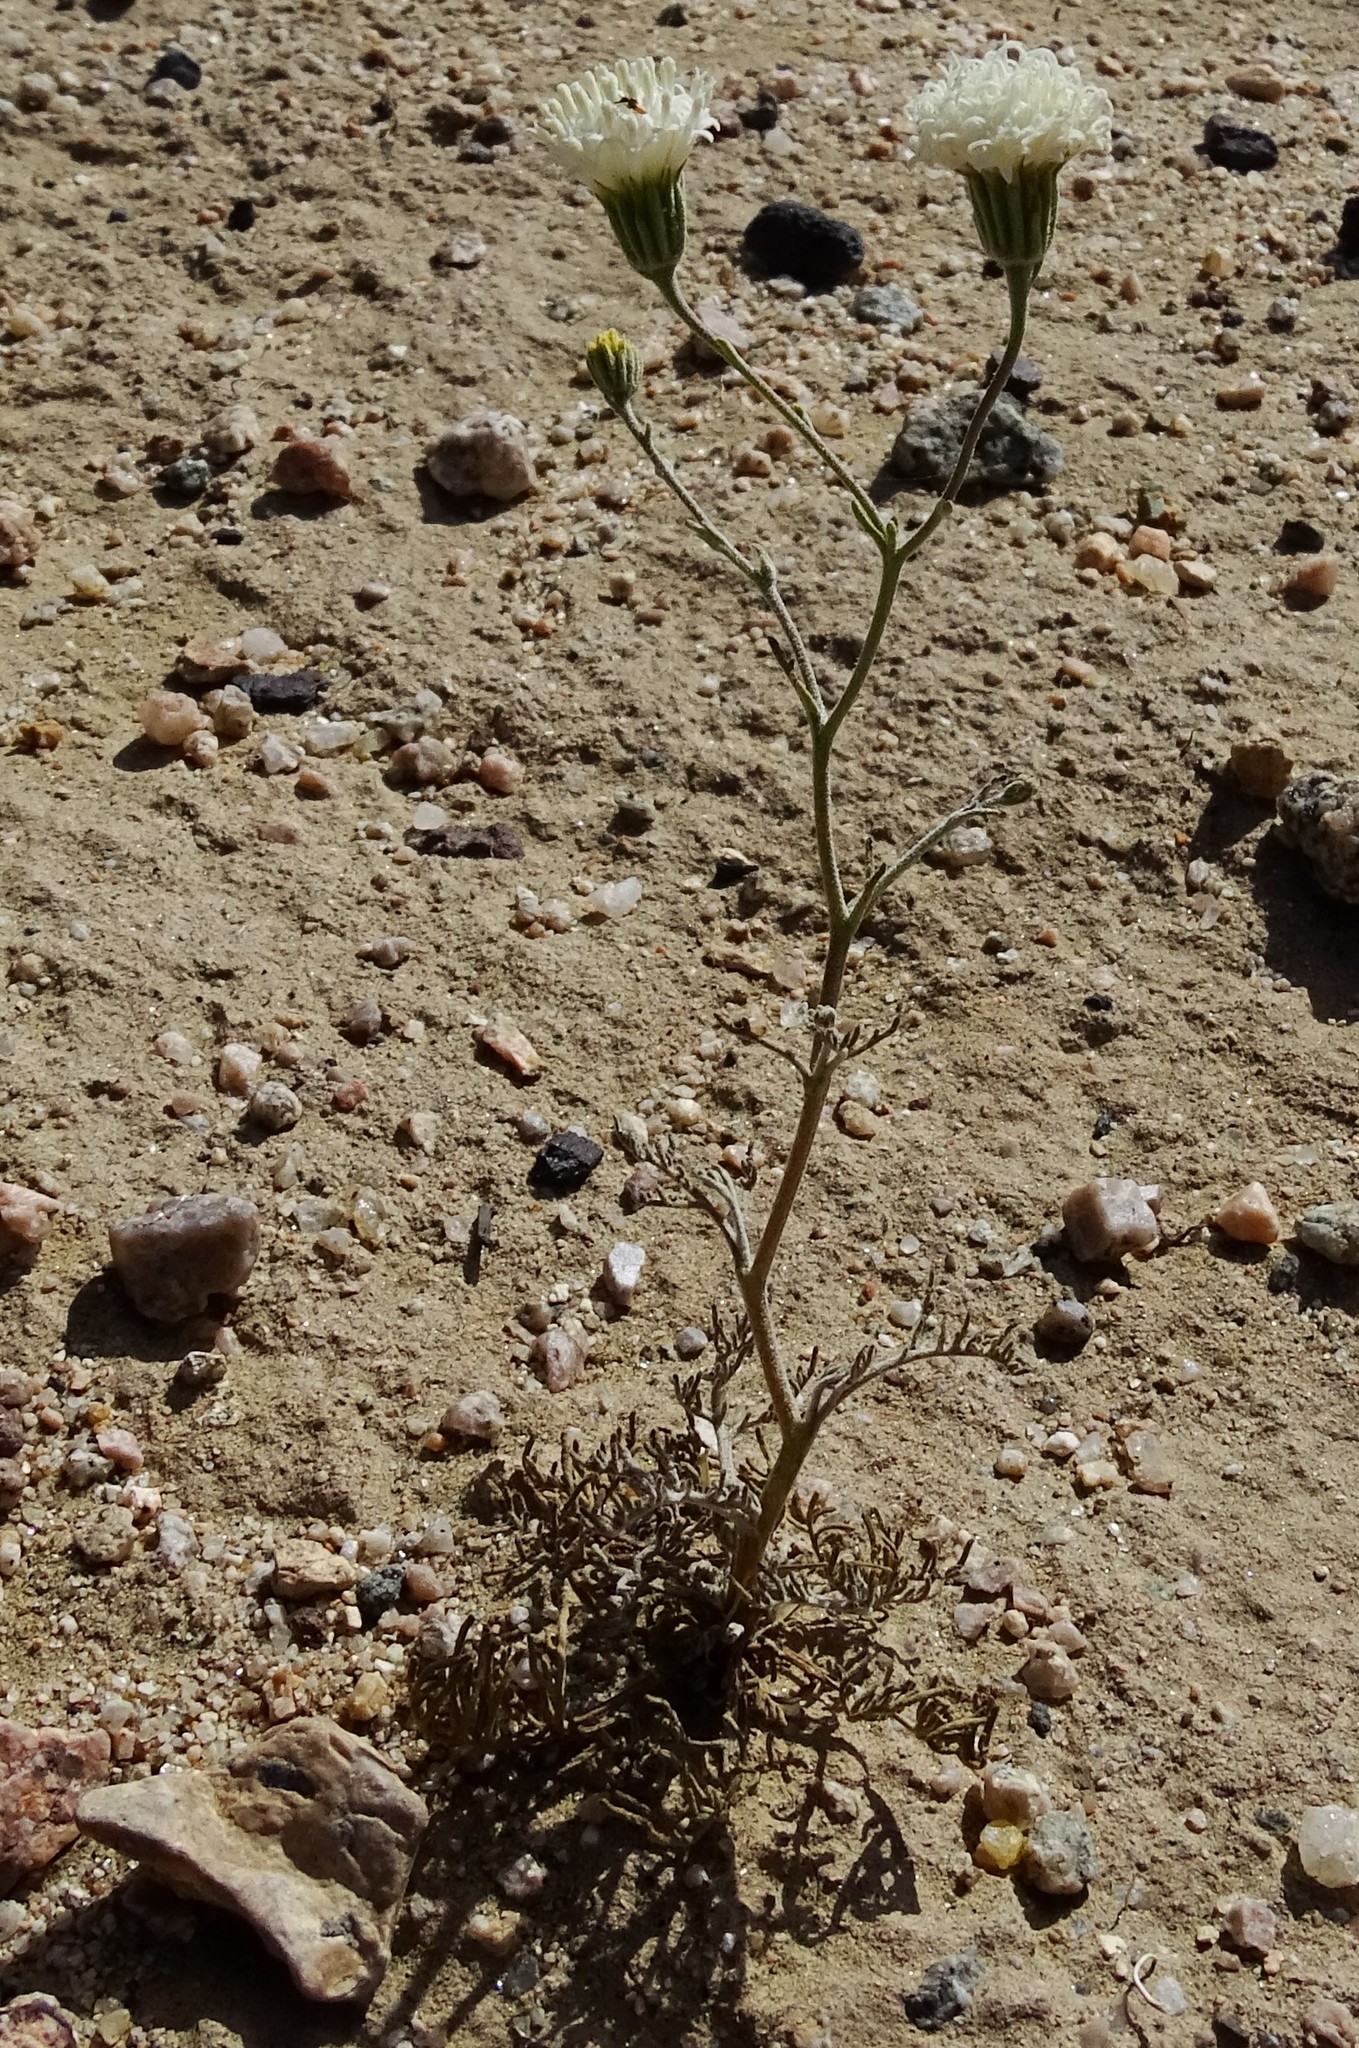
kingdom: Plantae
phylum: Tracheophyta
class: Magnoliopsida
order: Asterales
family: Asteraceae
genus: Chaenactis
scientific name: Chaenactis carphoclinia
